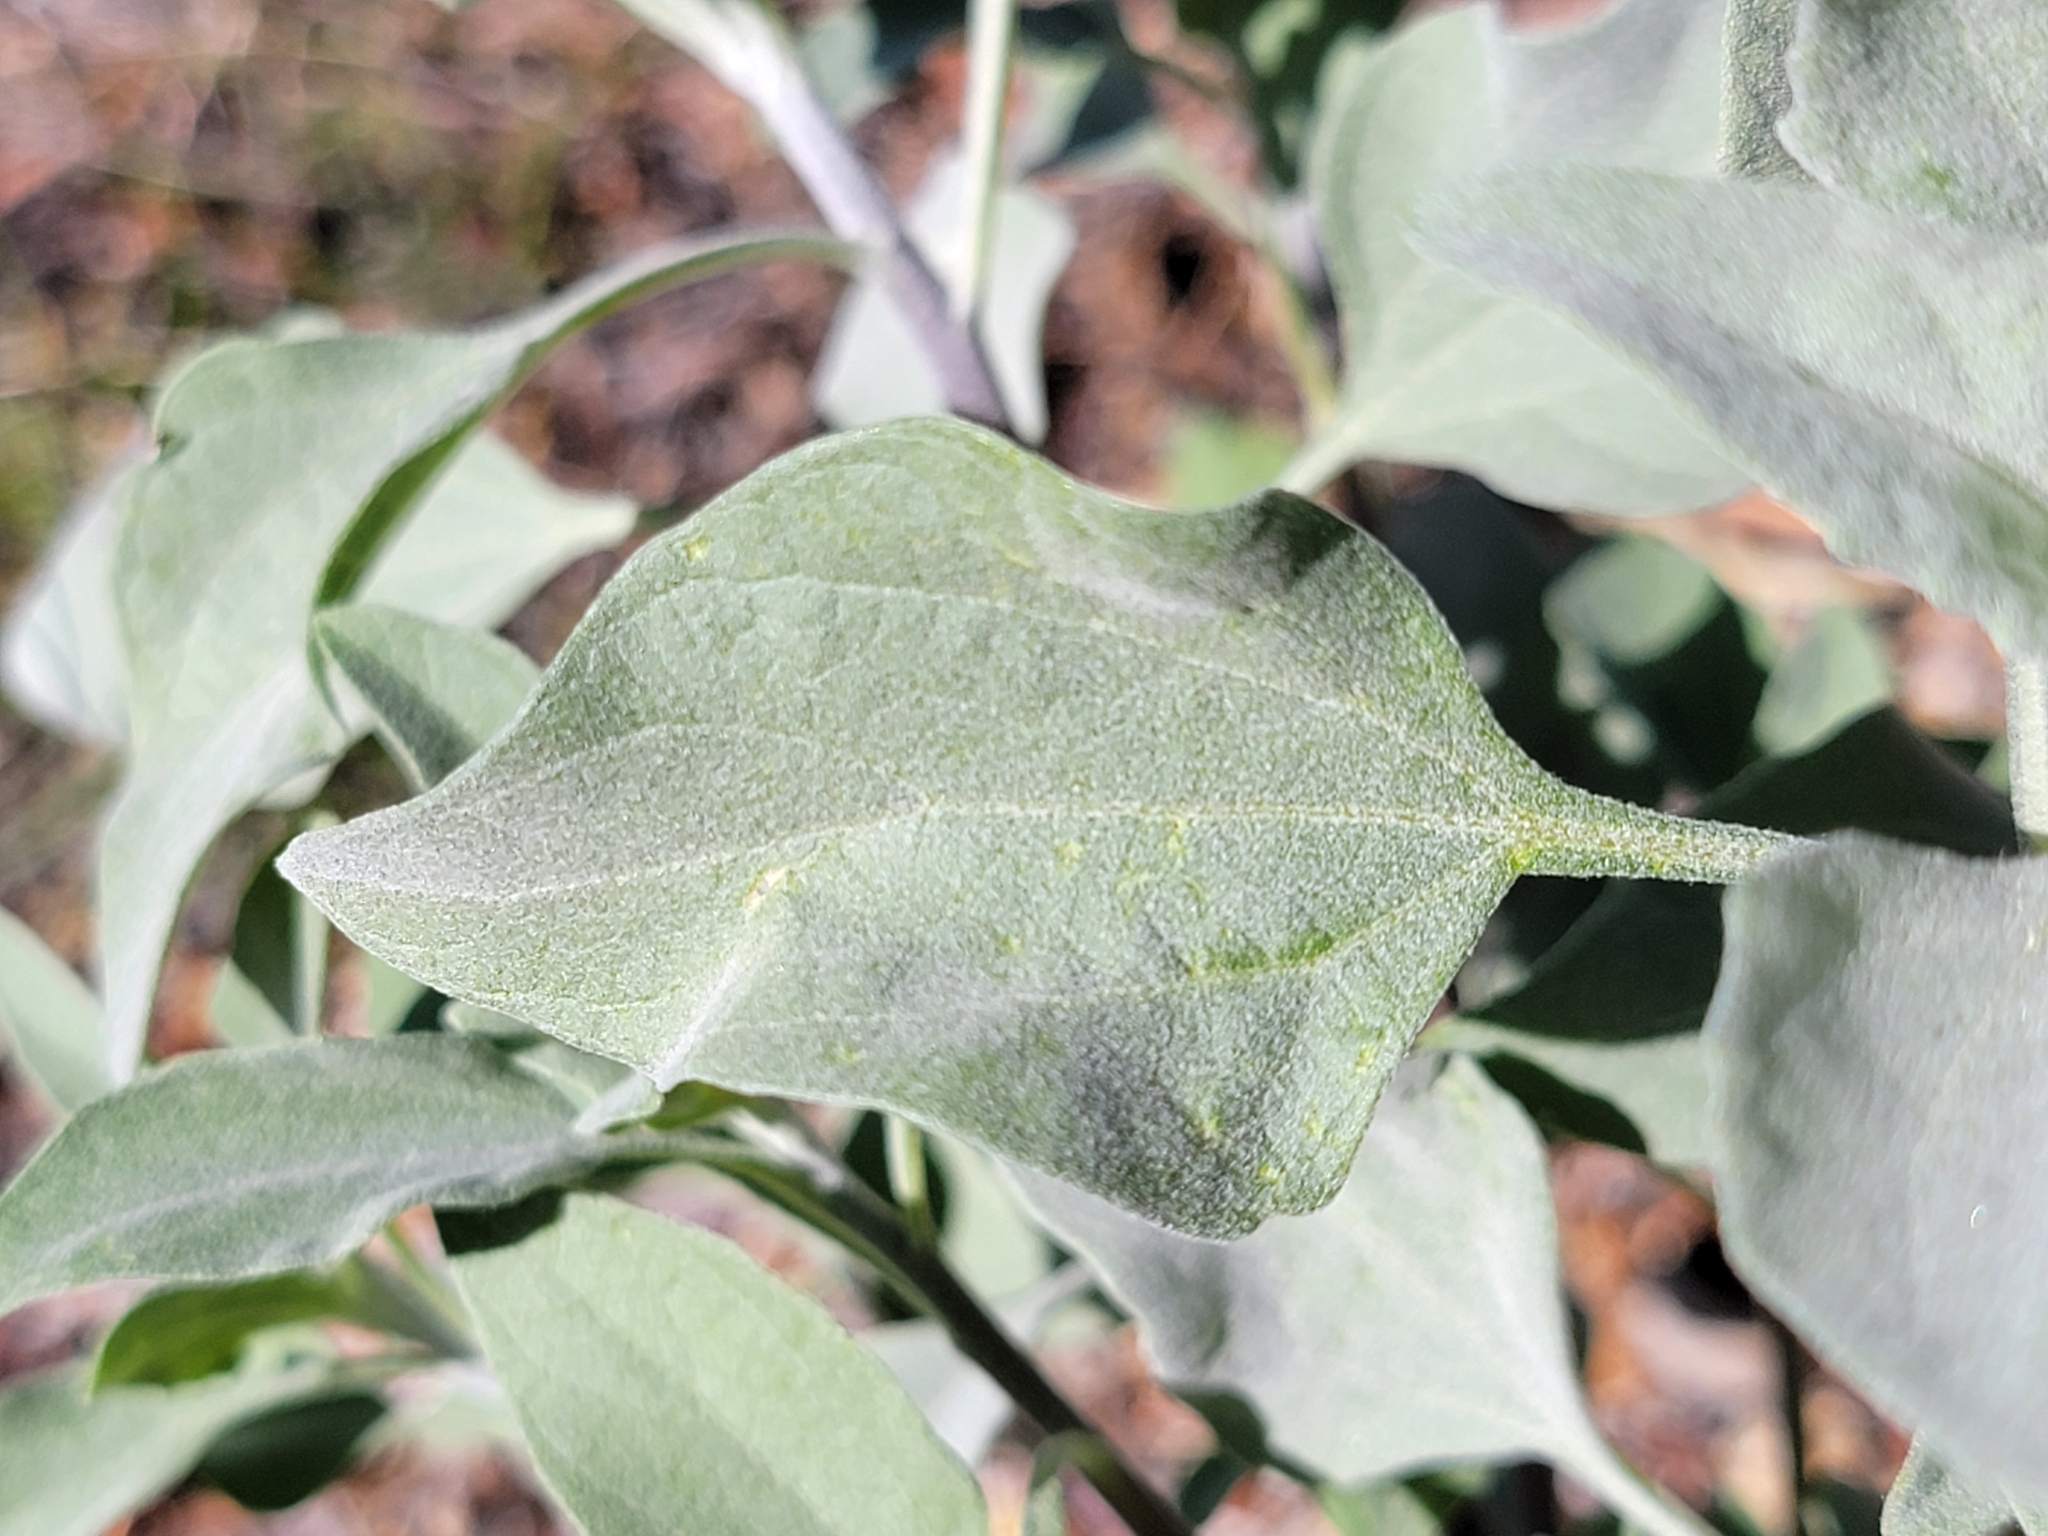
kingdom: Plantae
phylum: Tracheophyta
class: Magnoliopsida
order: Asterales
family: Asteraceae
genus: Encelia
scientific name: Encelia farinosa
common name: Brittlebush
